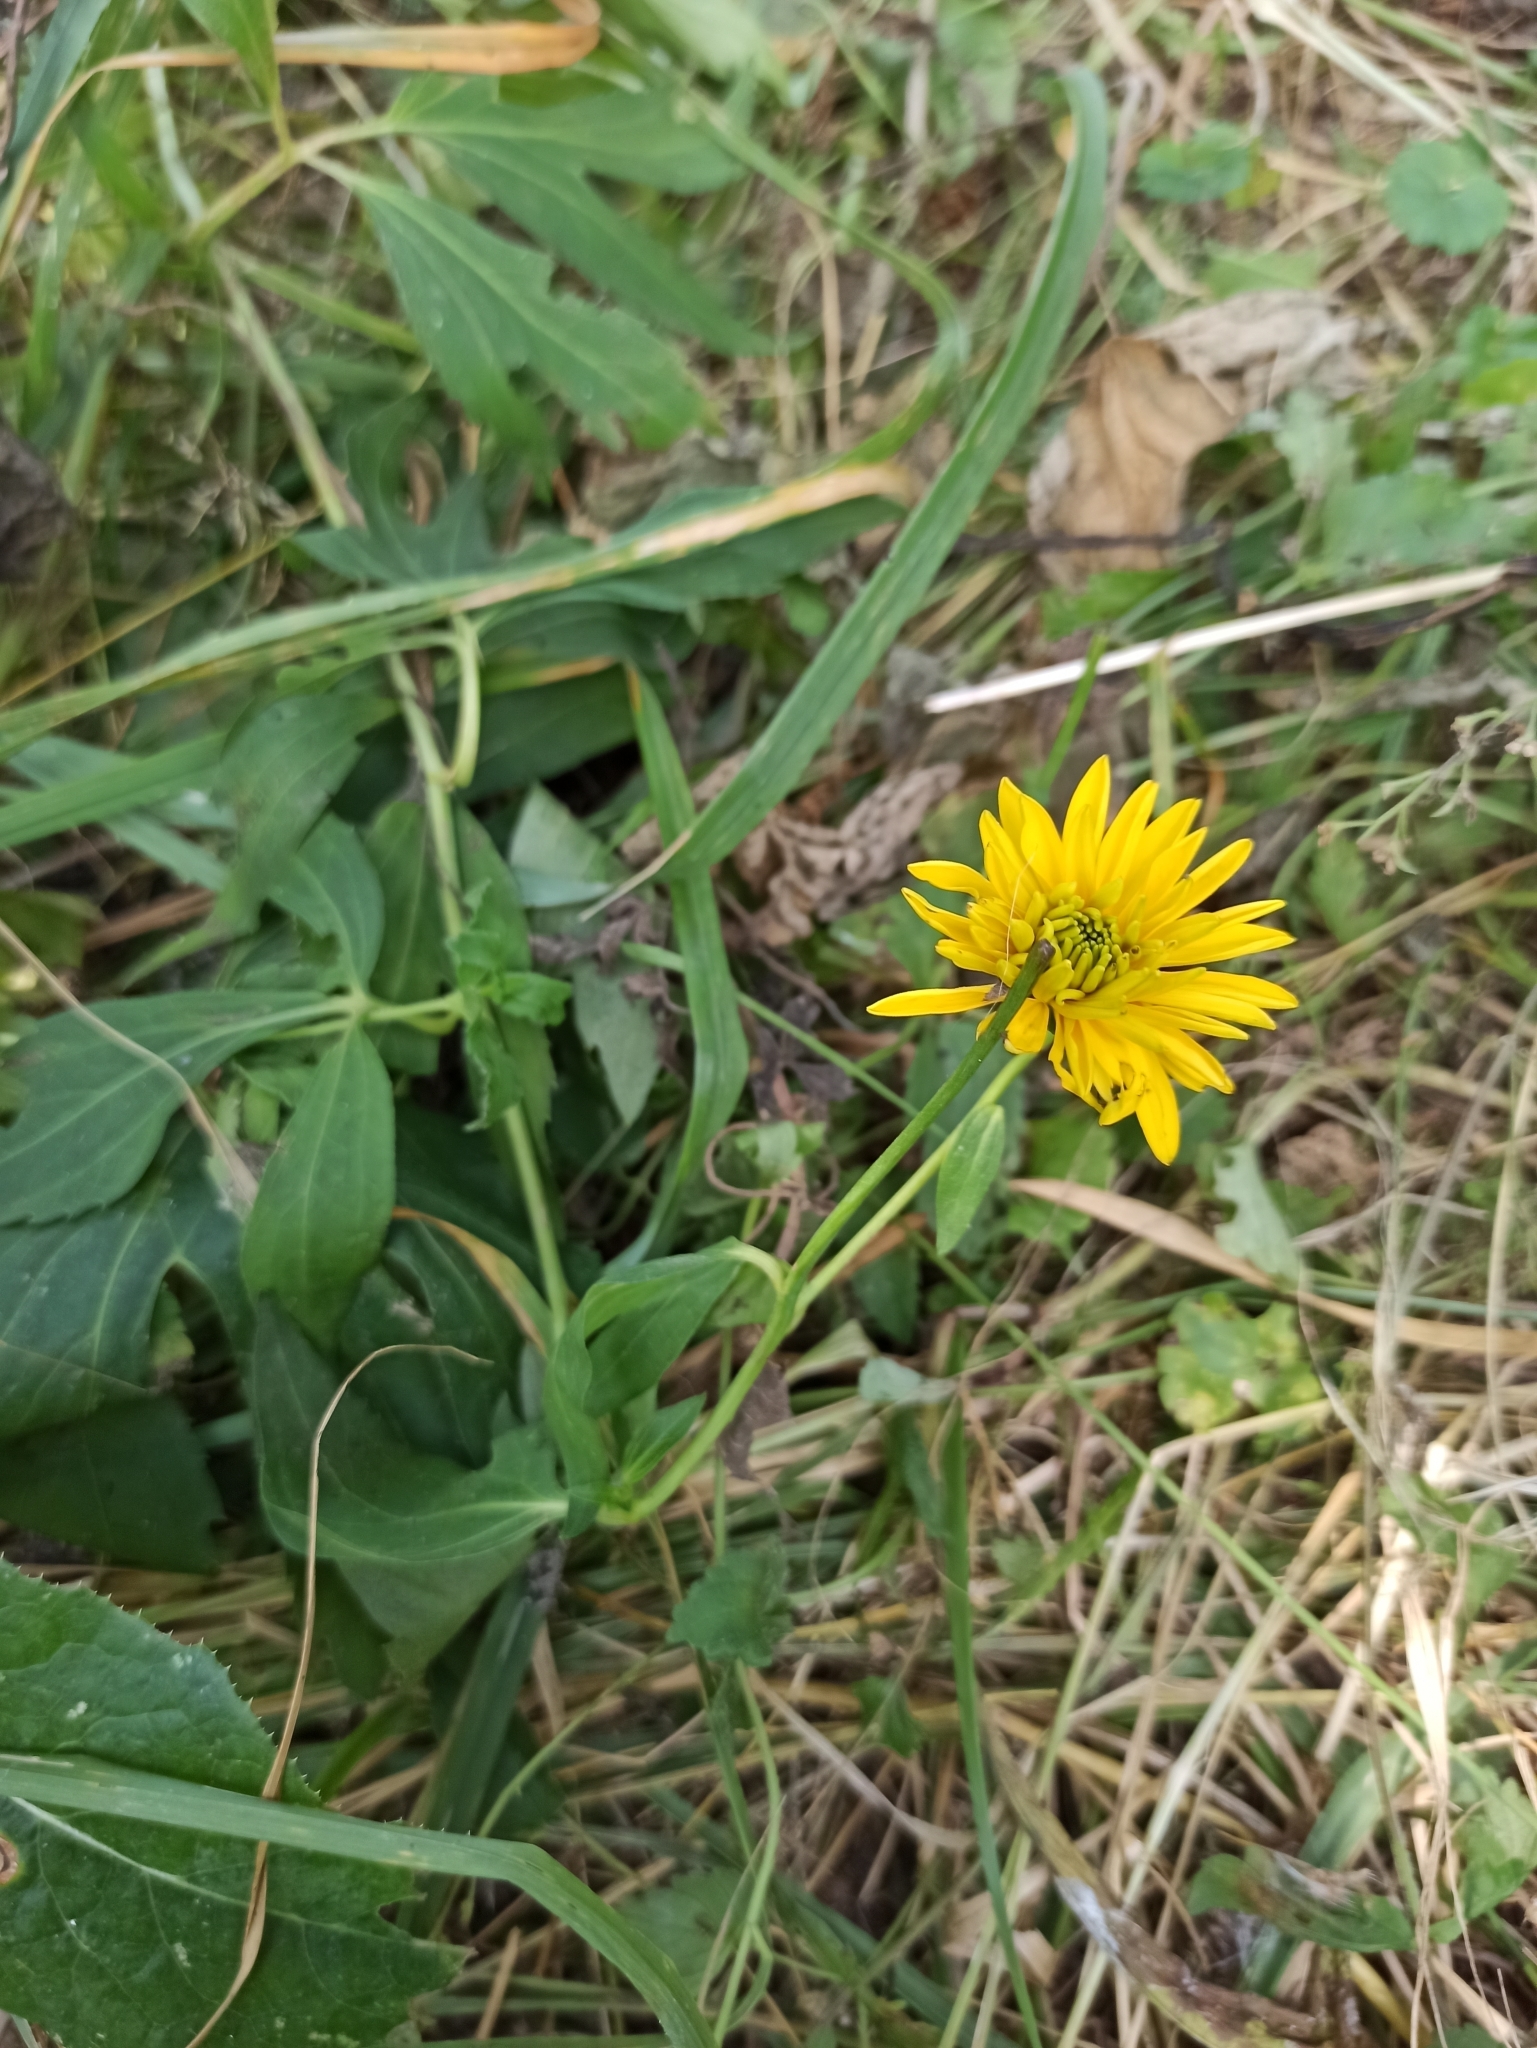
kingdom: Plantae
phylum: Tracheophyta
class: Magnoliopsida
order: Asterales
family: Asteraceae
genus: Rudbeckia
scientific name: Rudbeckia laciniata
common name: Coneflower
